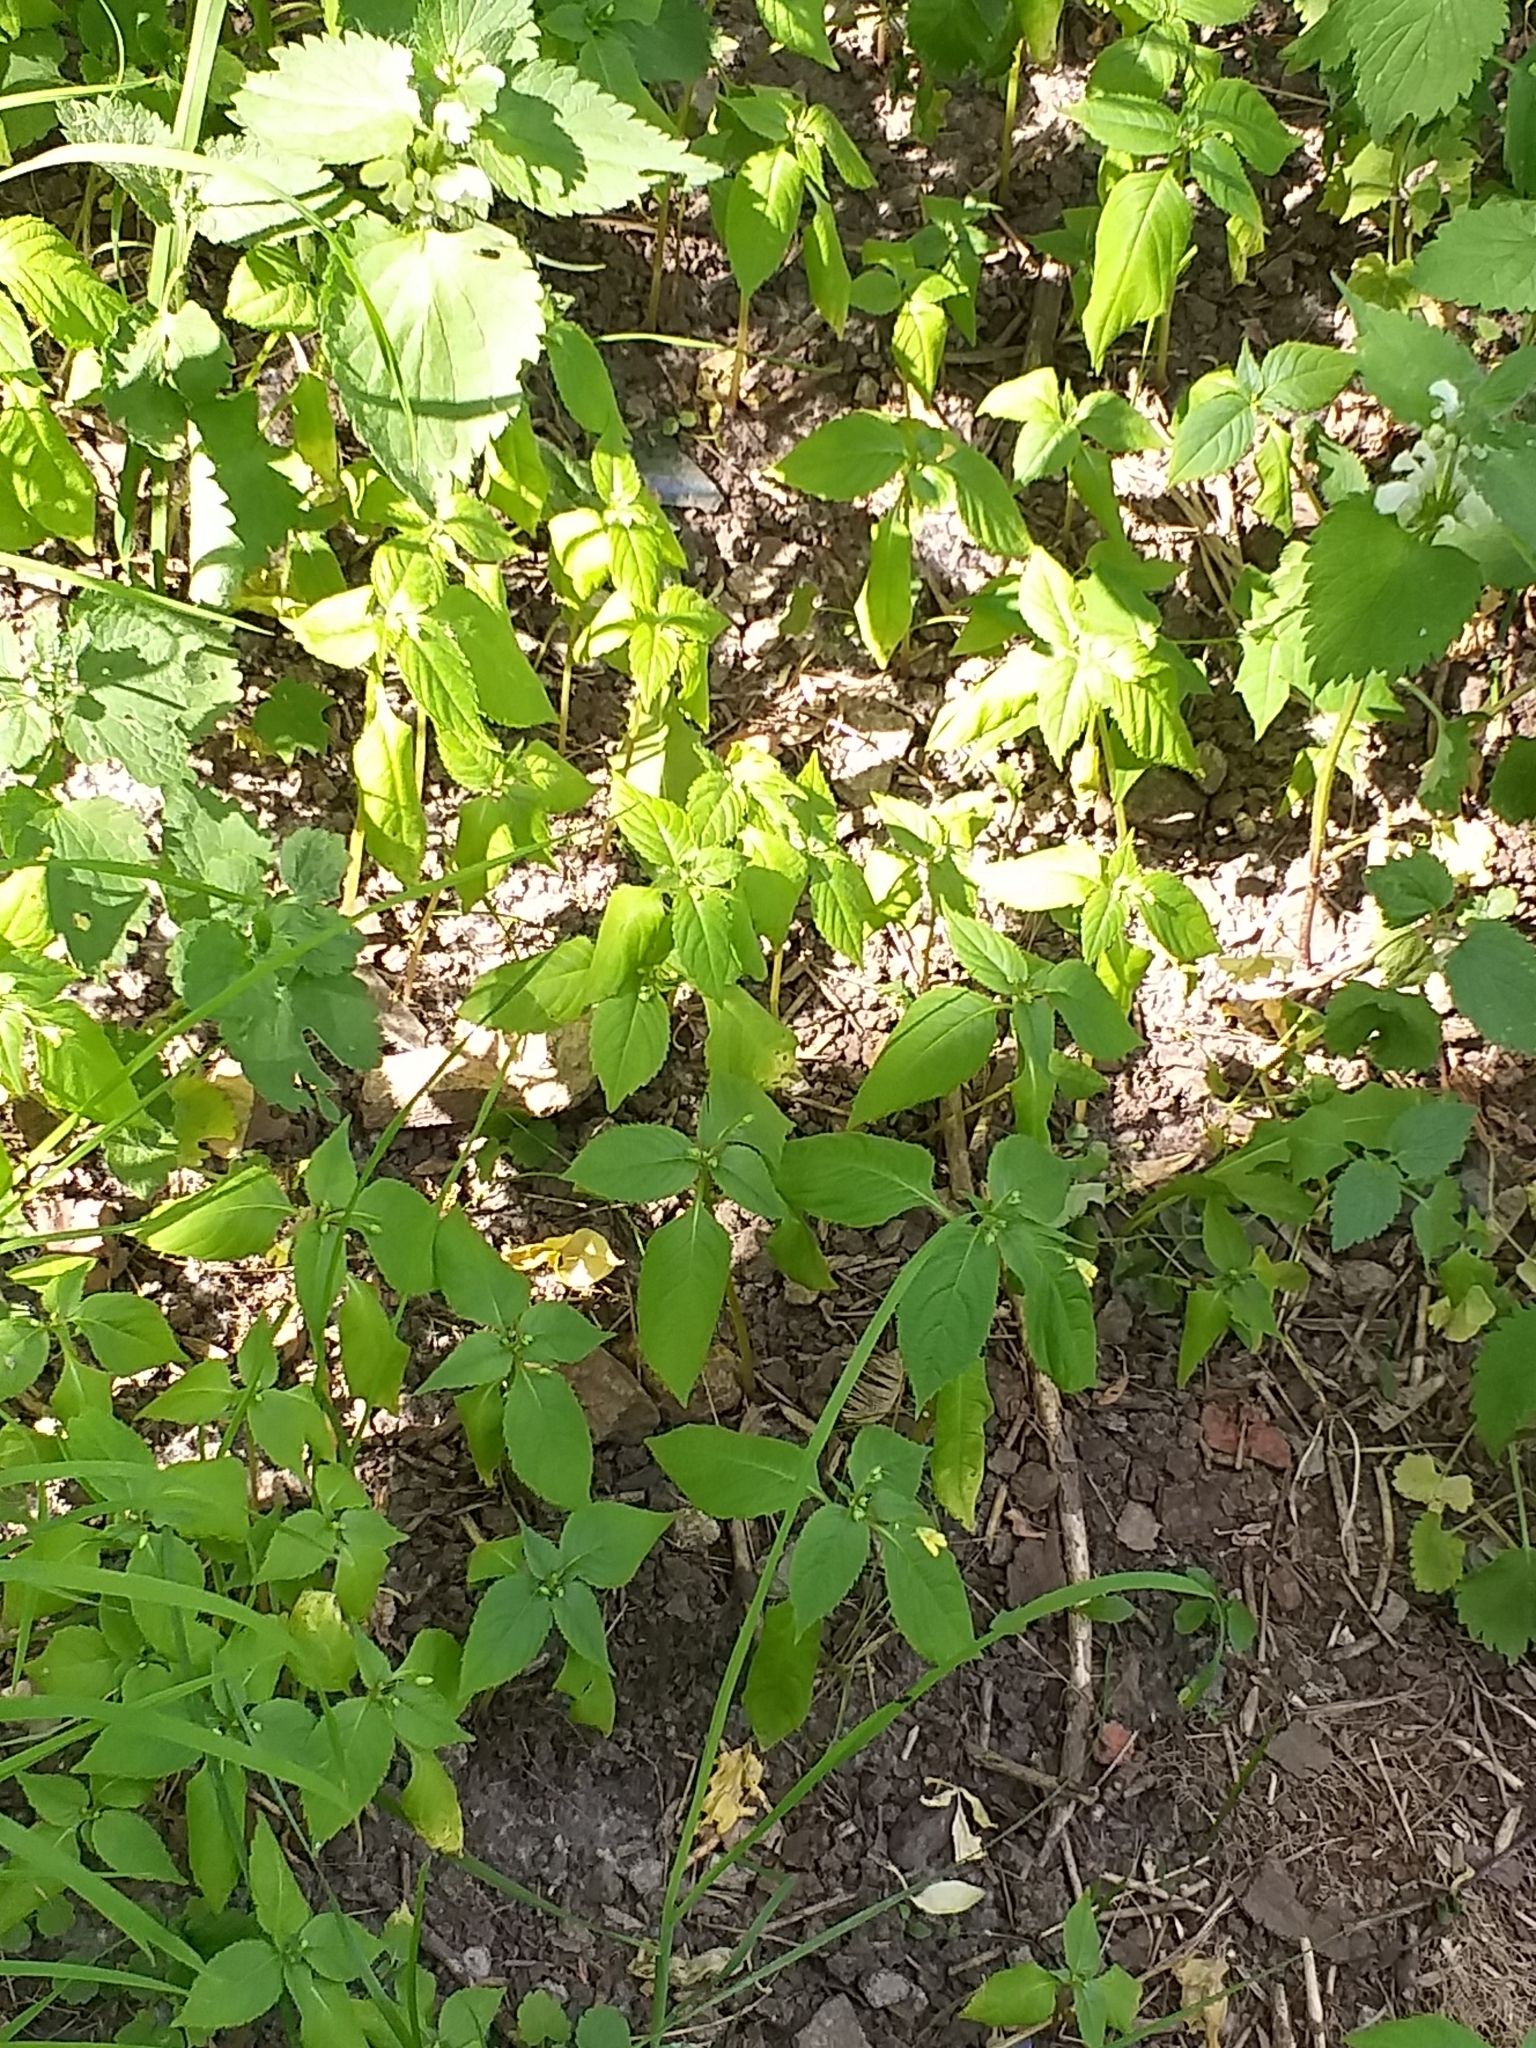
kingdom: Plantae
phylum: Tracheophyta
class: Magnoliopsida
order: Ericales
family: Balsaminaceae
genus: Impatiens
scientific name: Impatiens parviflora
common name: Small balsam
